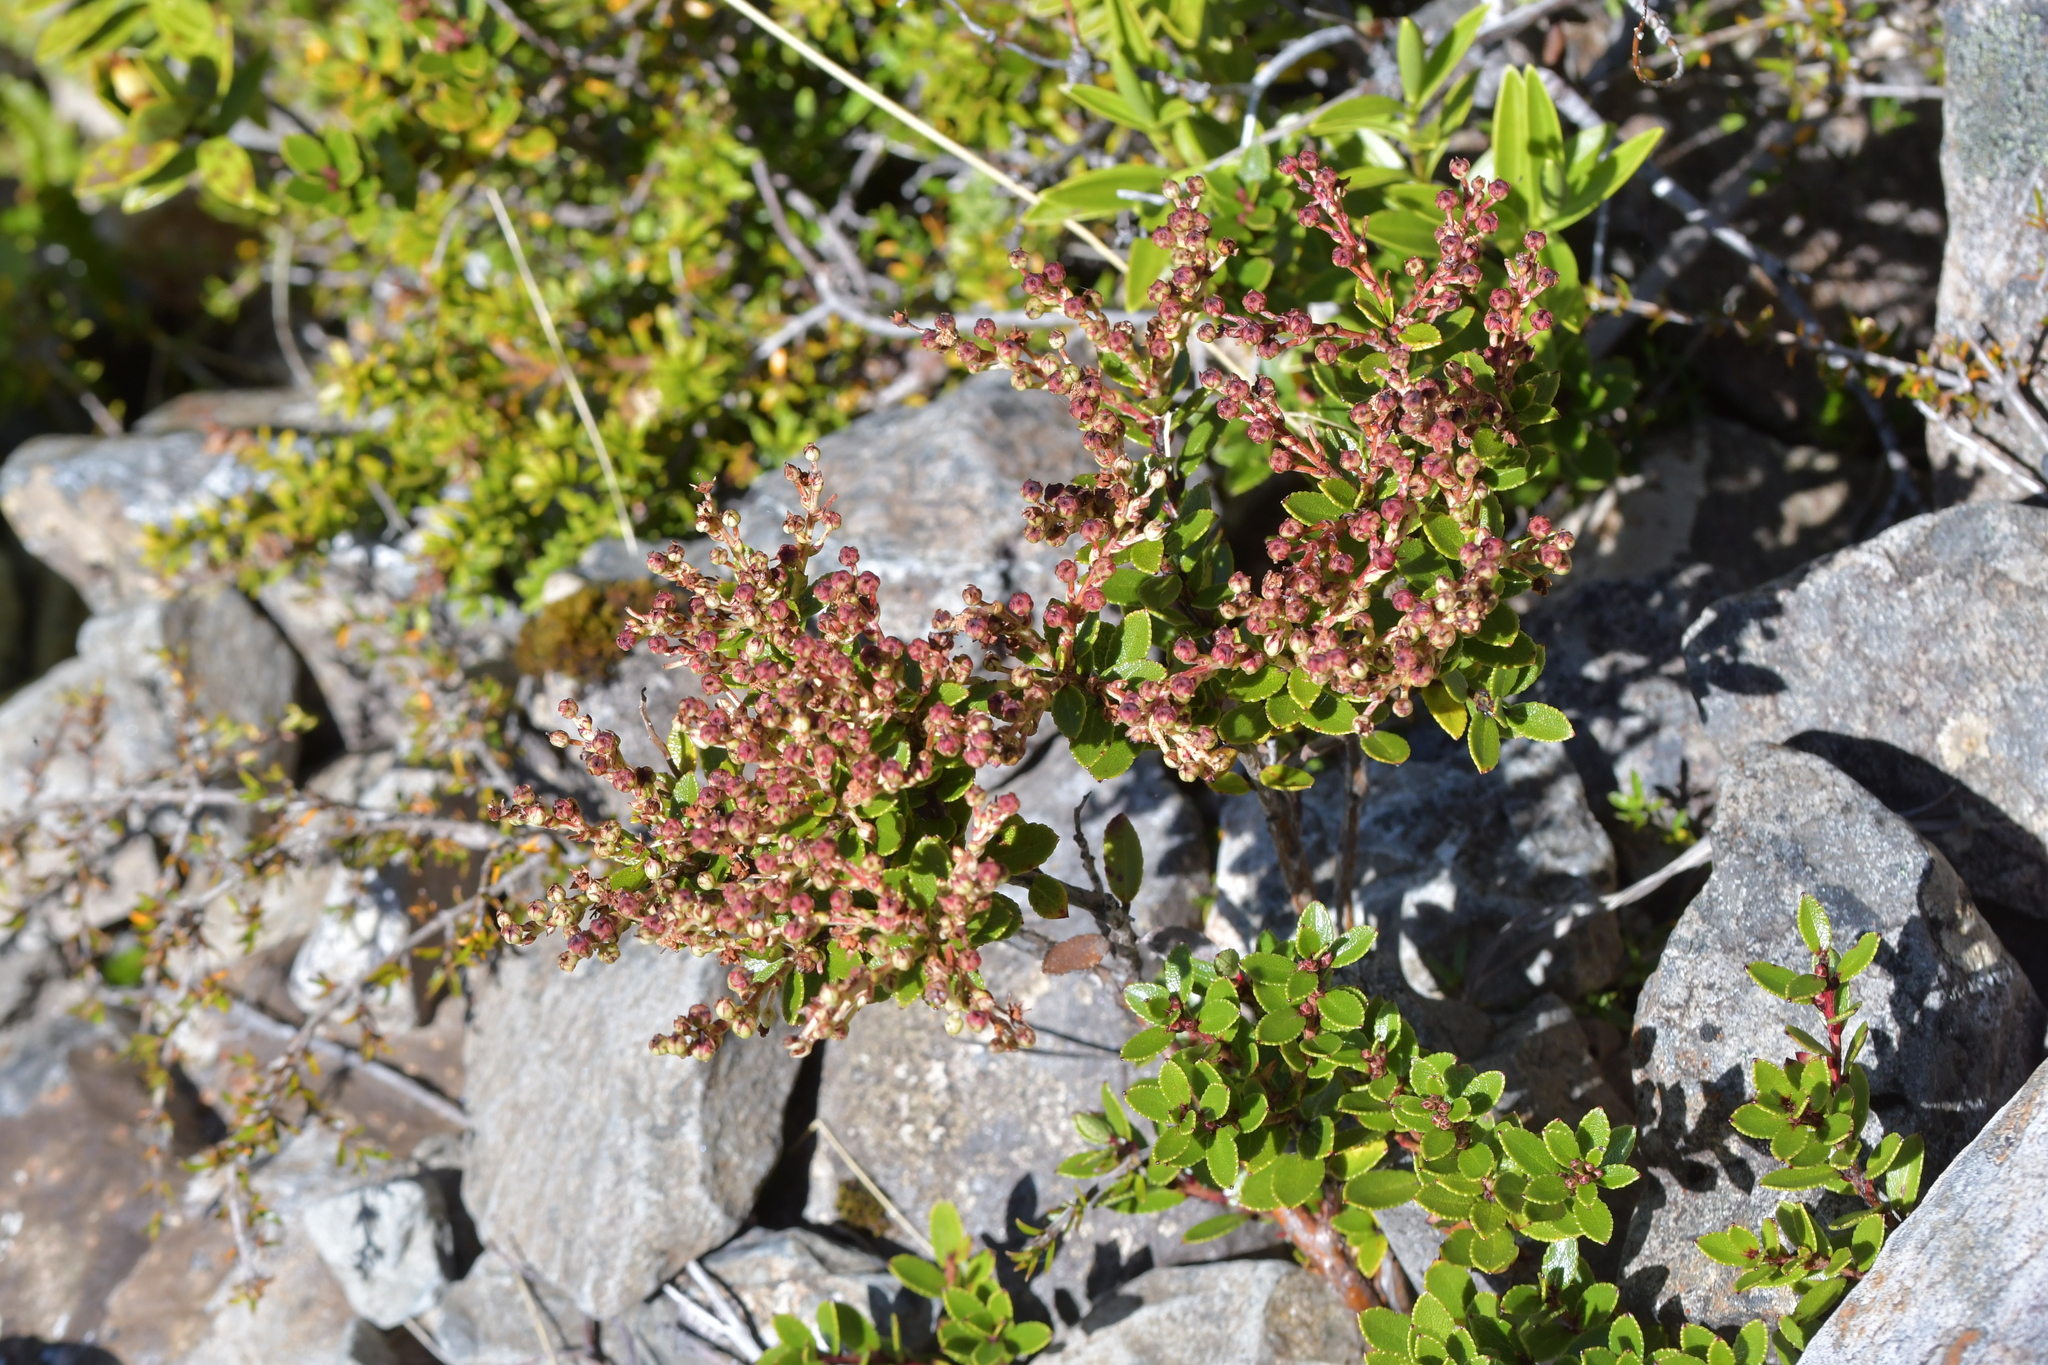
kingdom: Plantae
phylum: Tracheophyta
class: Magnoliopsida
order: Ericales
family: Ericaceae
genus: Gaultheria
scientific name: Gaultheria crassa
